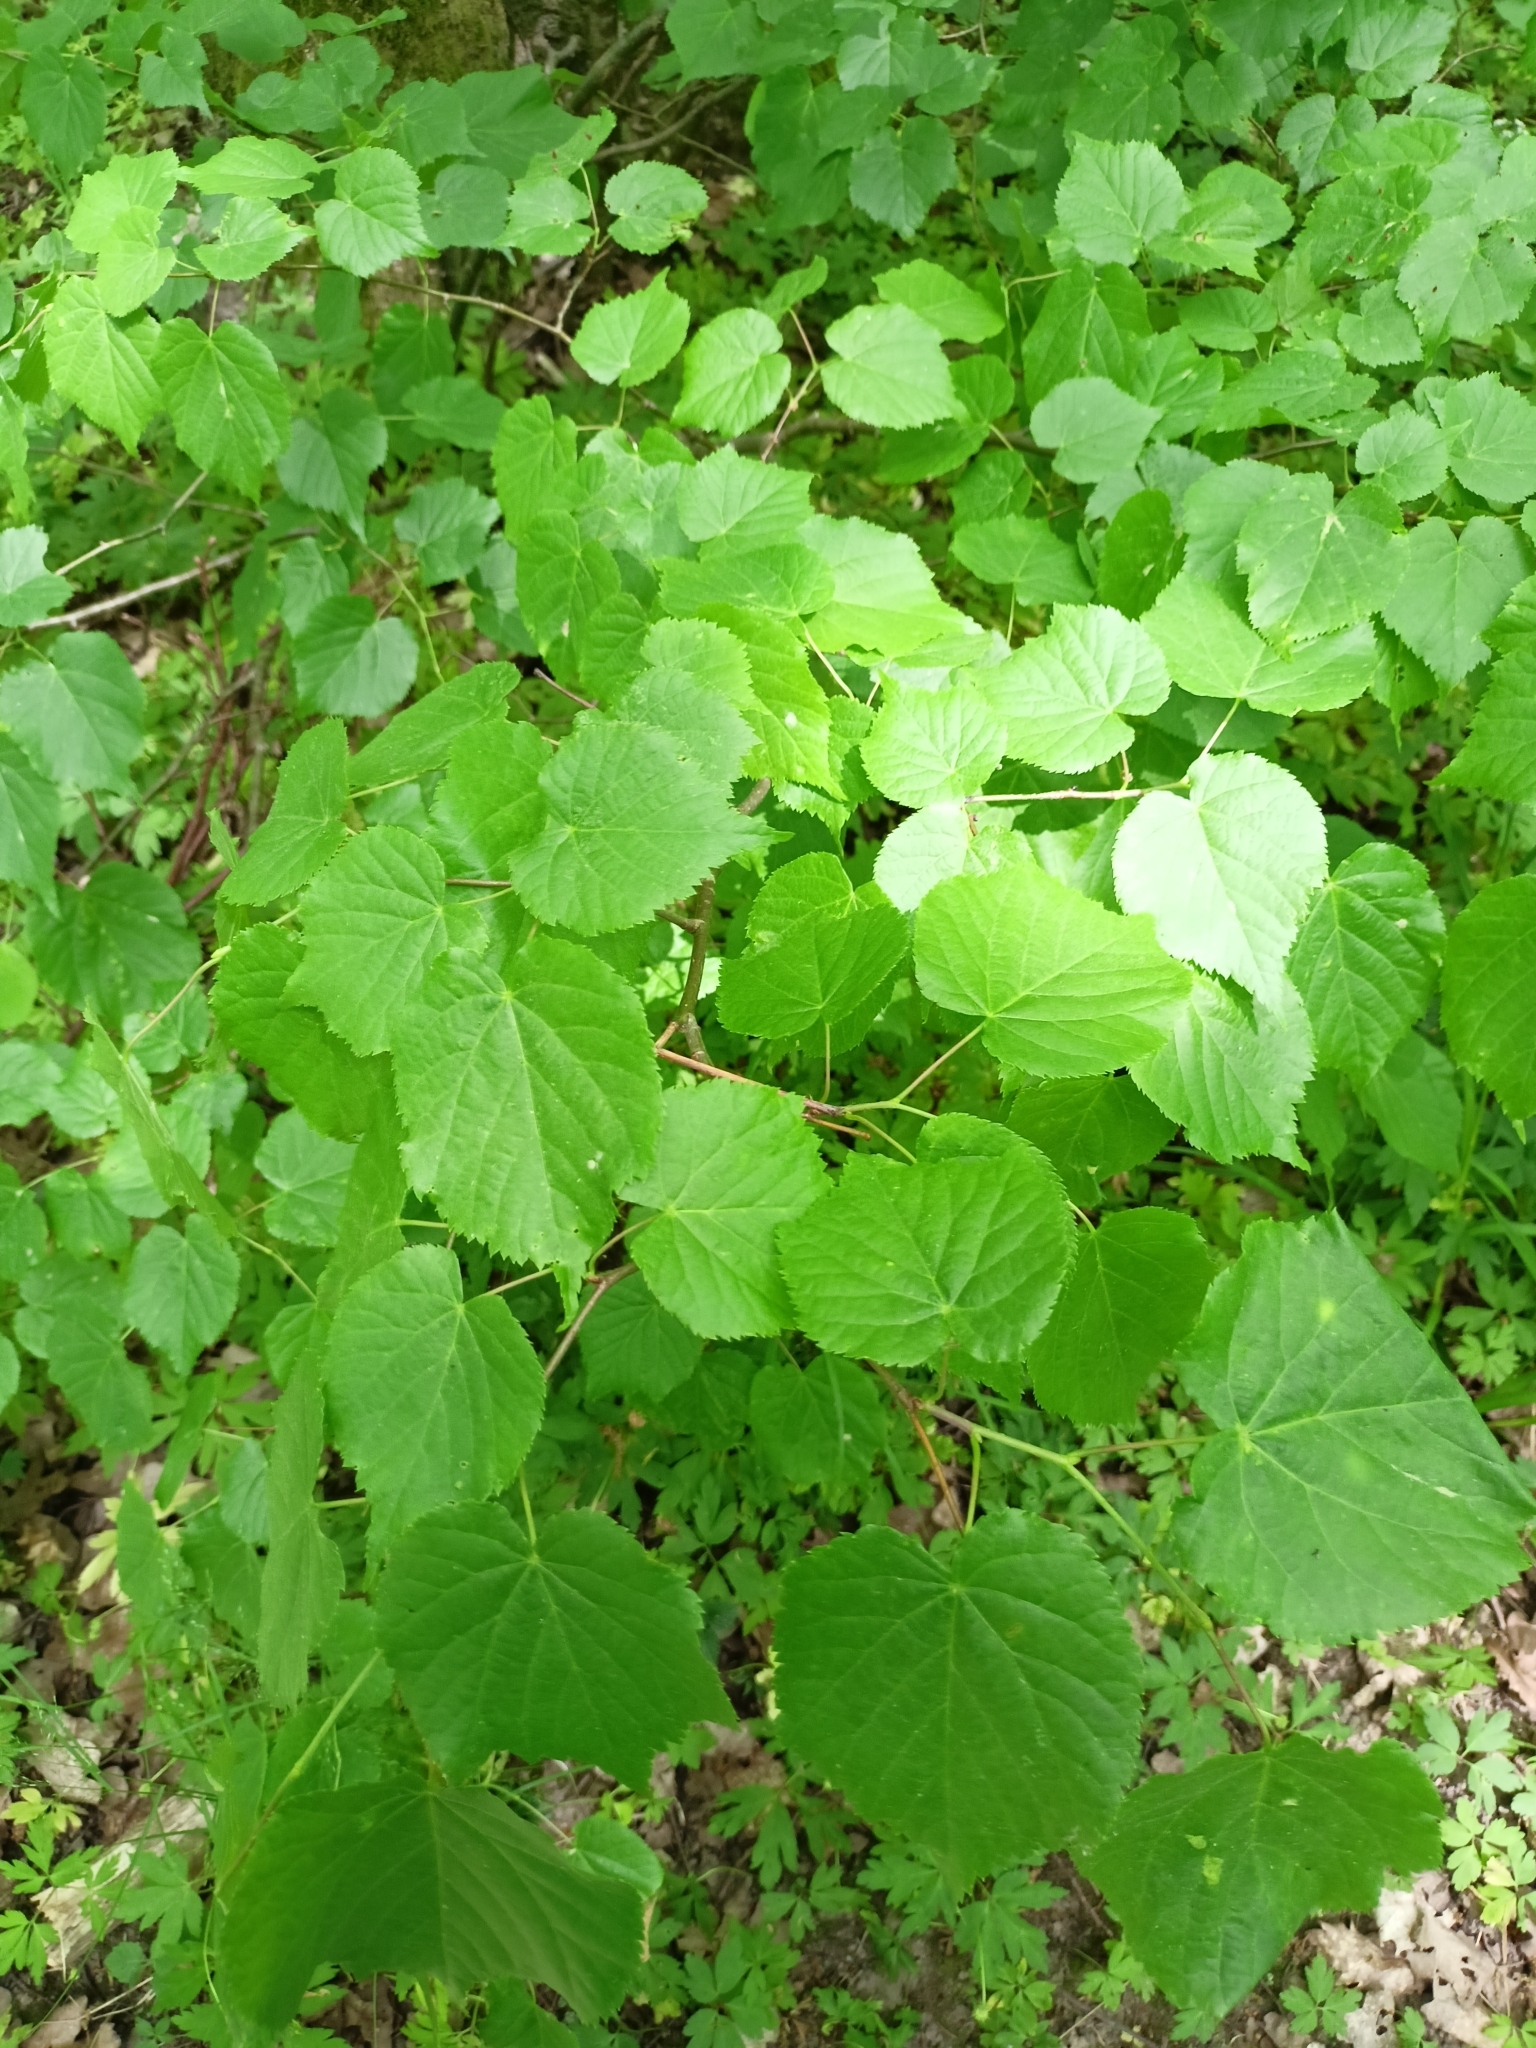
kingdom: Plantae
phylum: Tracheophyta
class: Magnoliopsida
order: Malvales
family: Malvaceae
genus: Tilia
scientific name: Tilia cordata
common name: Small-leaved lime
